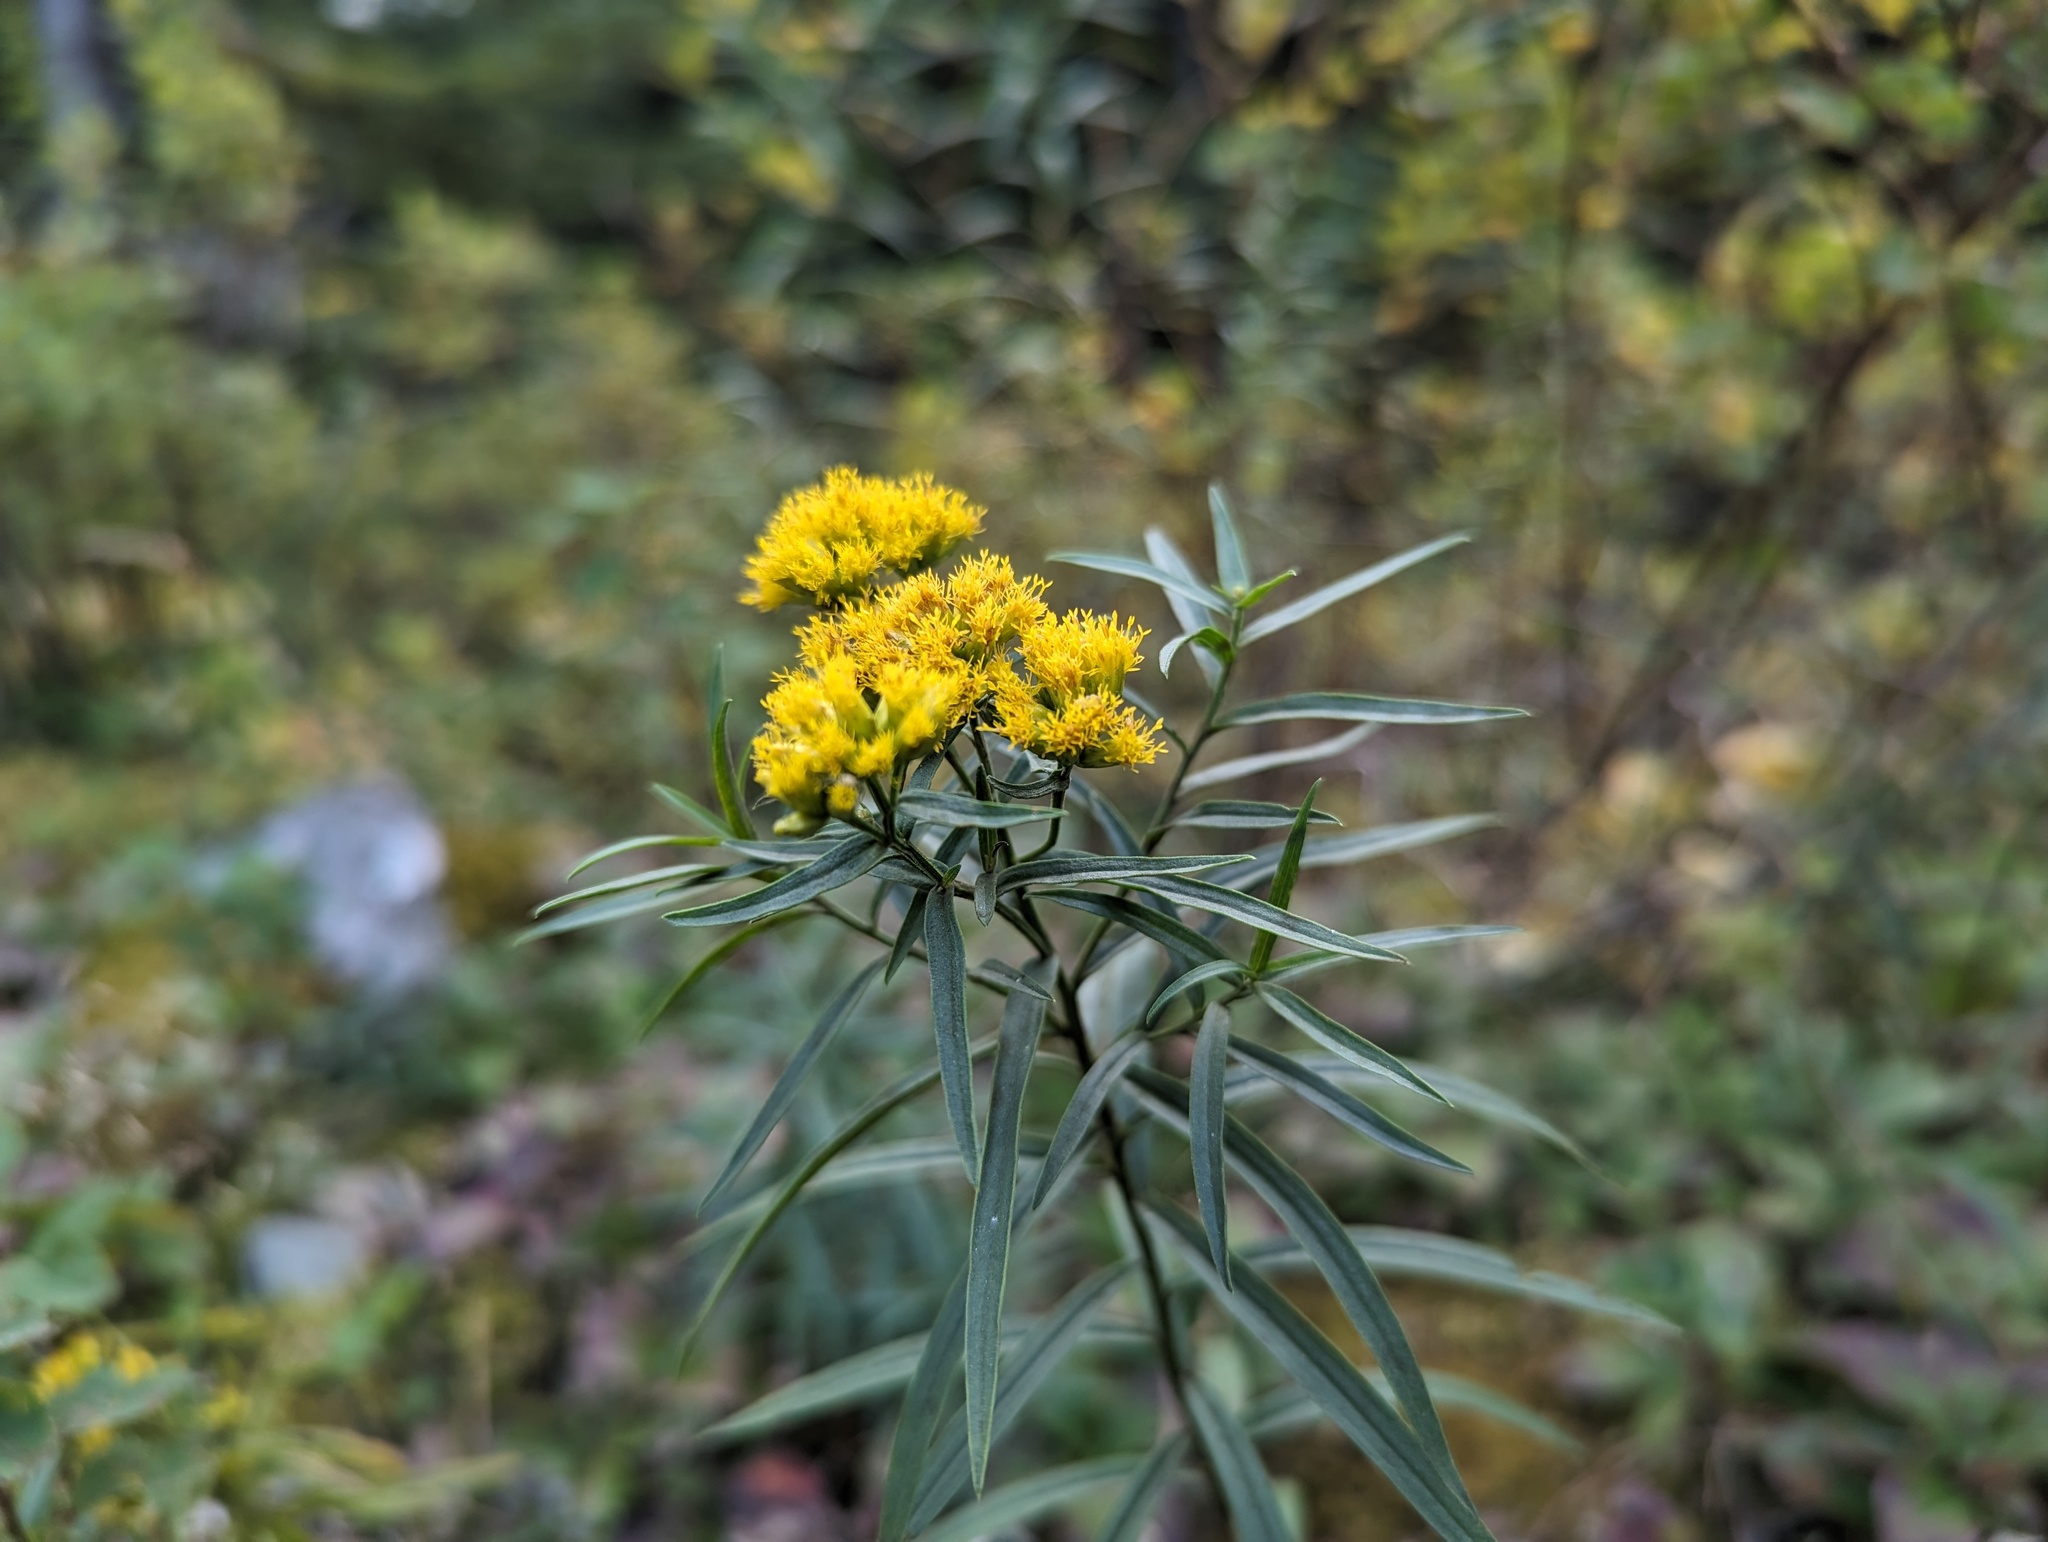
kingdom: Plantae
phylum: Tracheophyta
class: Magnoliopsida
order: Asterales
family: Asteraceae
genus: Euthamia
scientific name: Euthamia graminifolia
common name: Common goldentop
